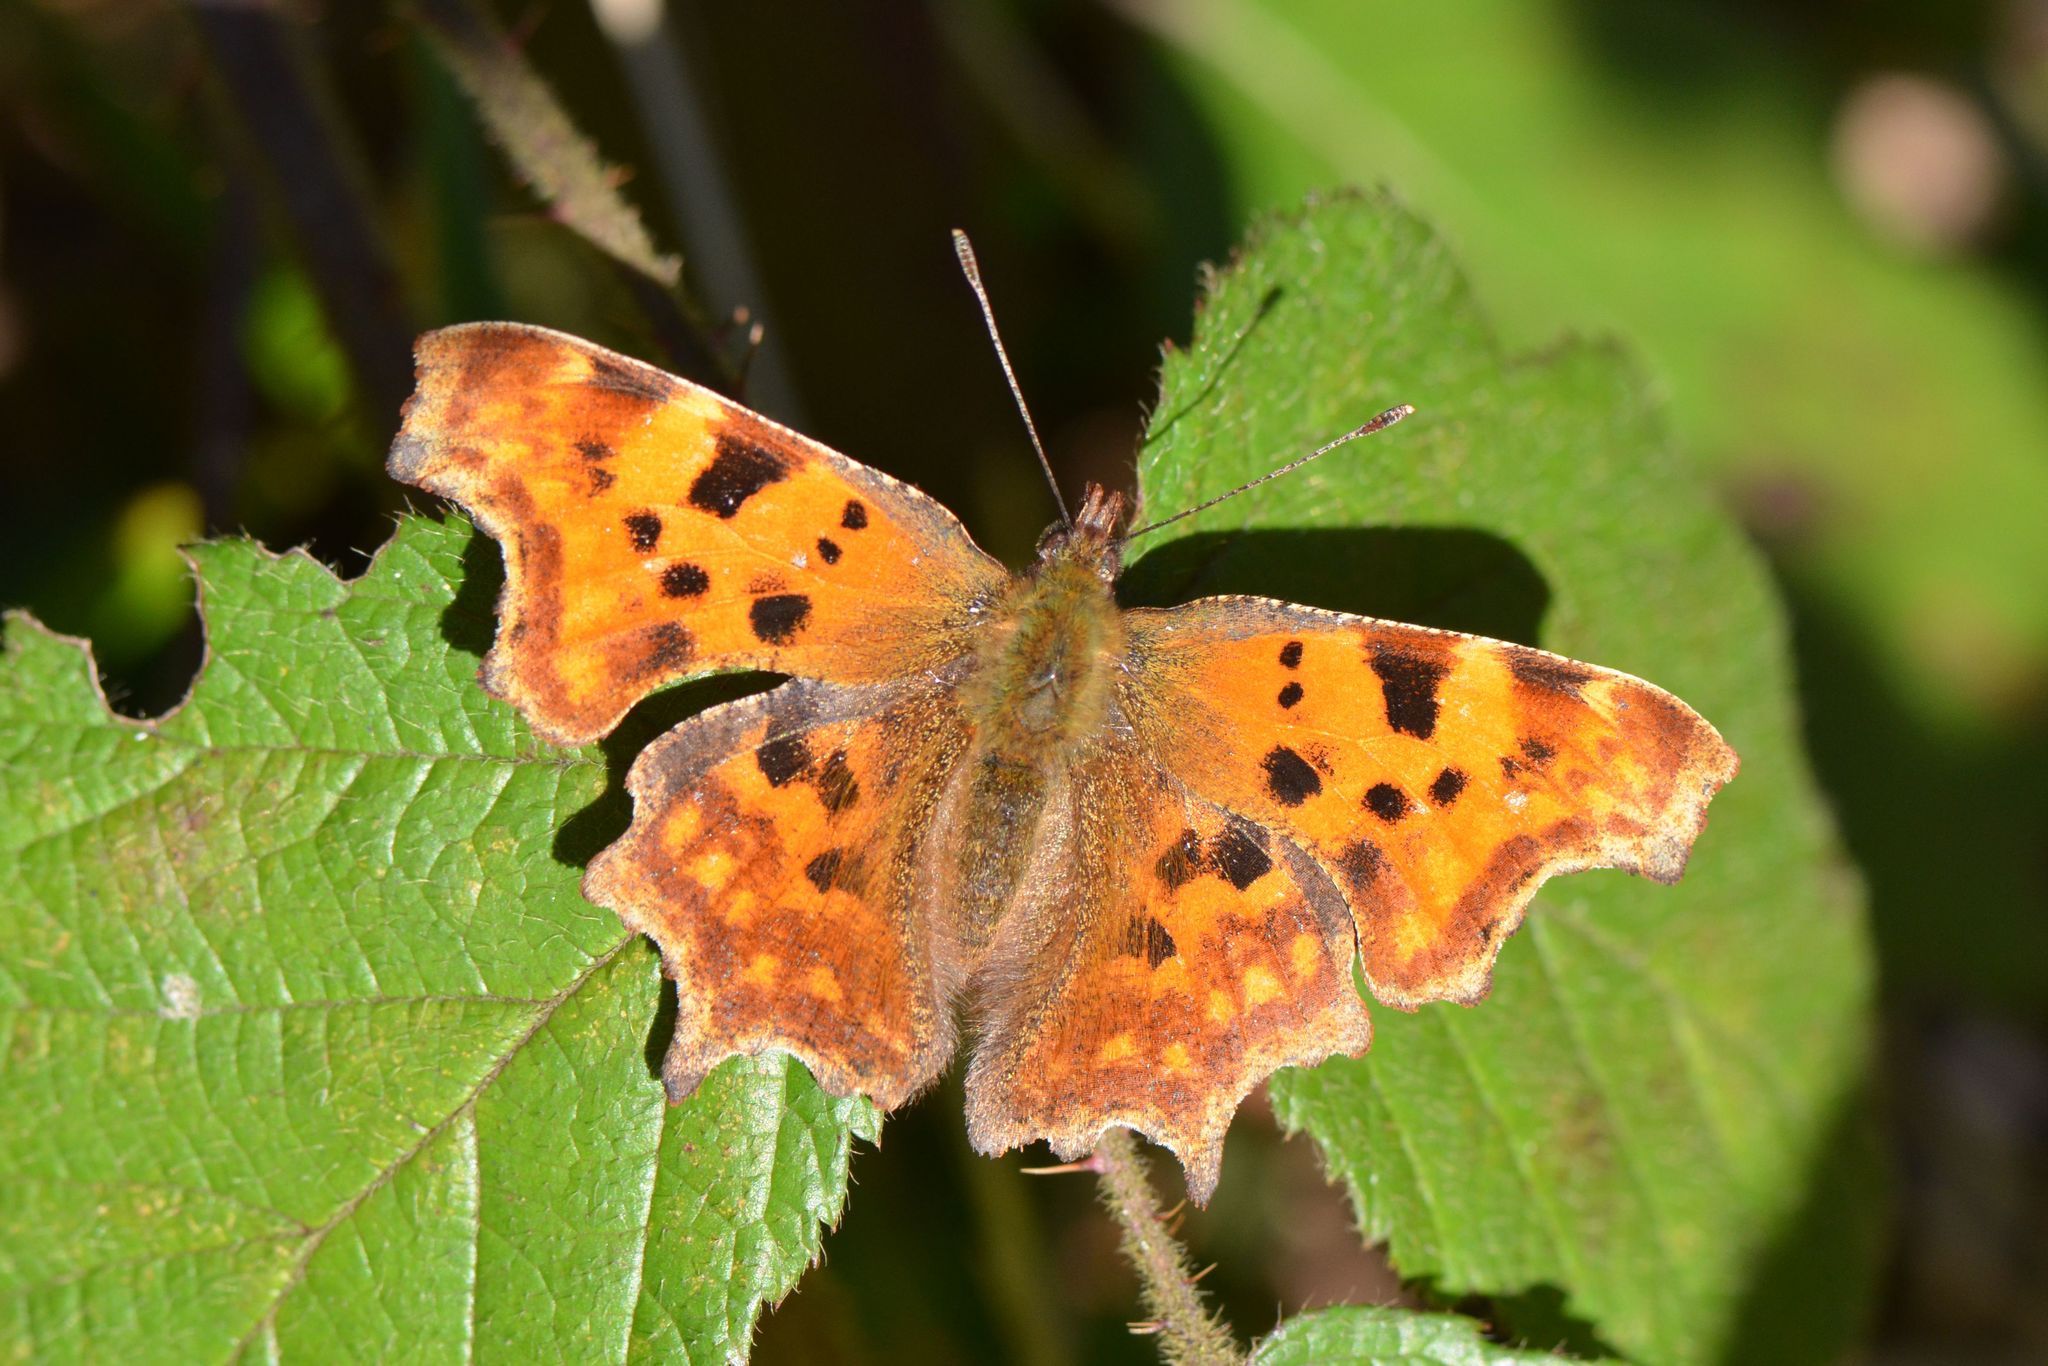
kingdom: Animalia
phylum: Arthropoda
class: Insecta
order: Lepidoptera
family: Nymphalidae
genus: Polygonia
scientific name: Polygonia c-album
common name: Comma
